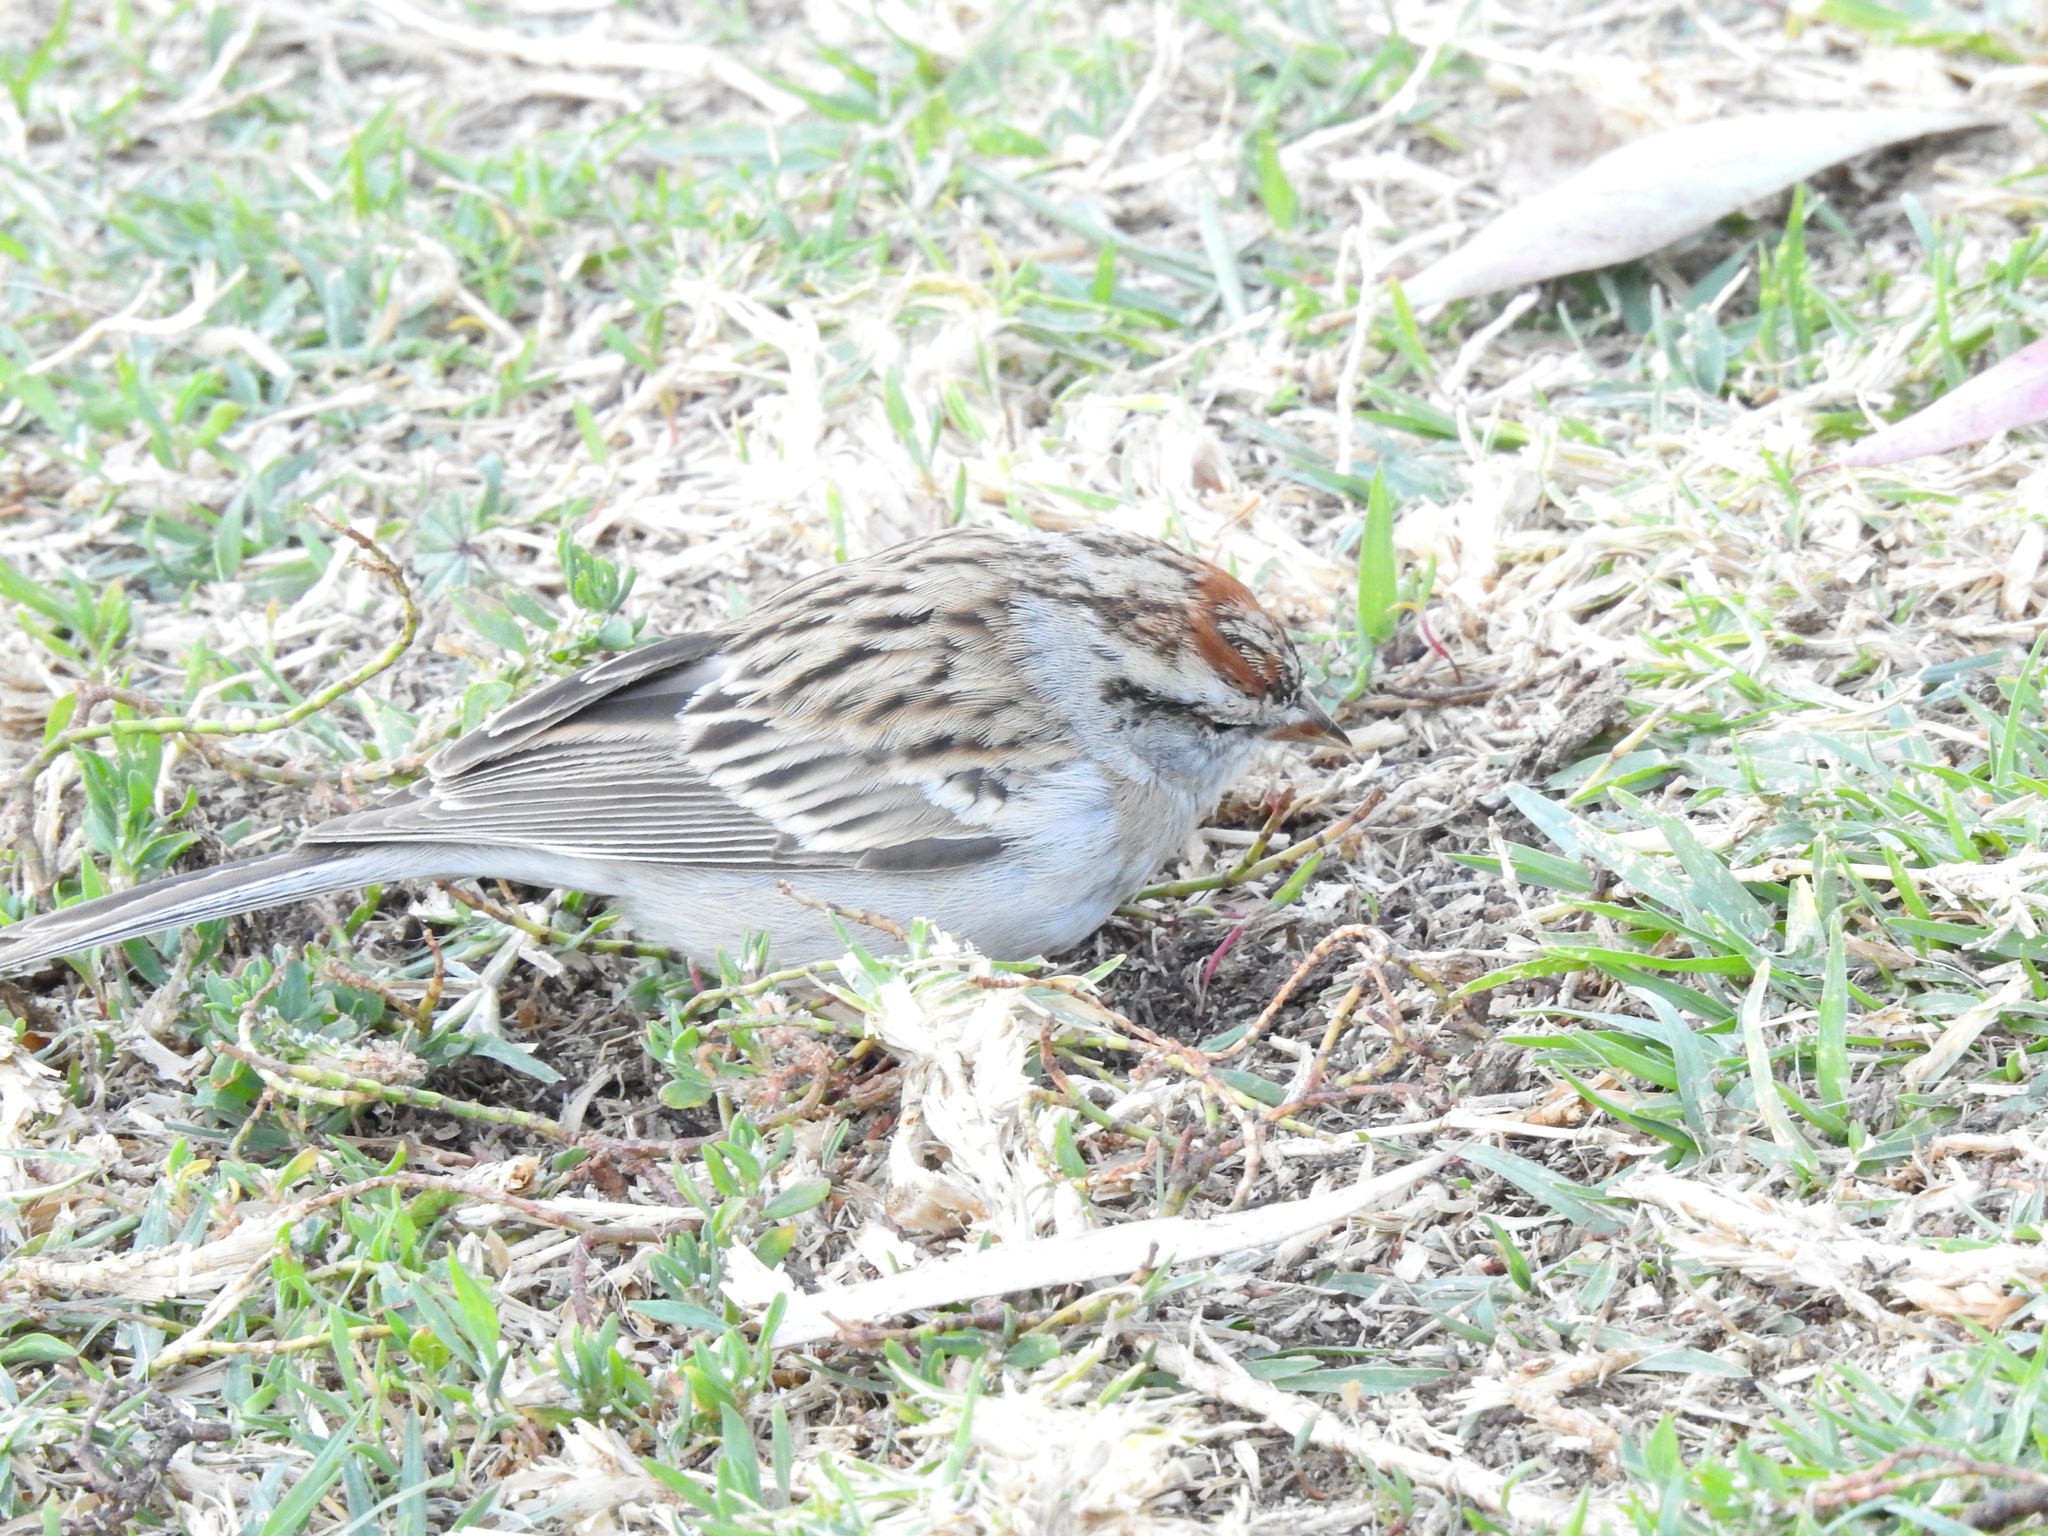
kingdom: Animalia
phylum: Chordata
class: Aves
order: Passeriformes
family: Passerellidae
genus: Spizella
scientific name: Spizella passerina
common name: Chipping sparrow
